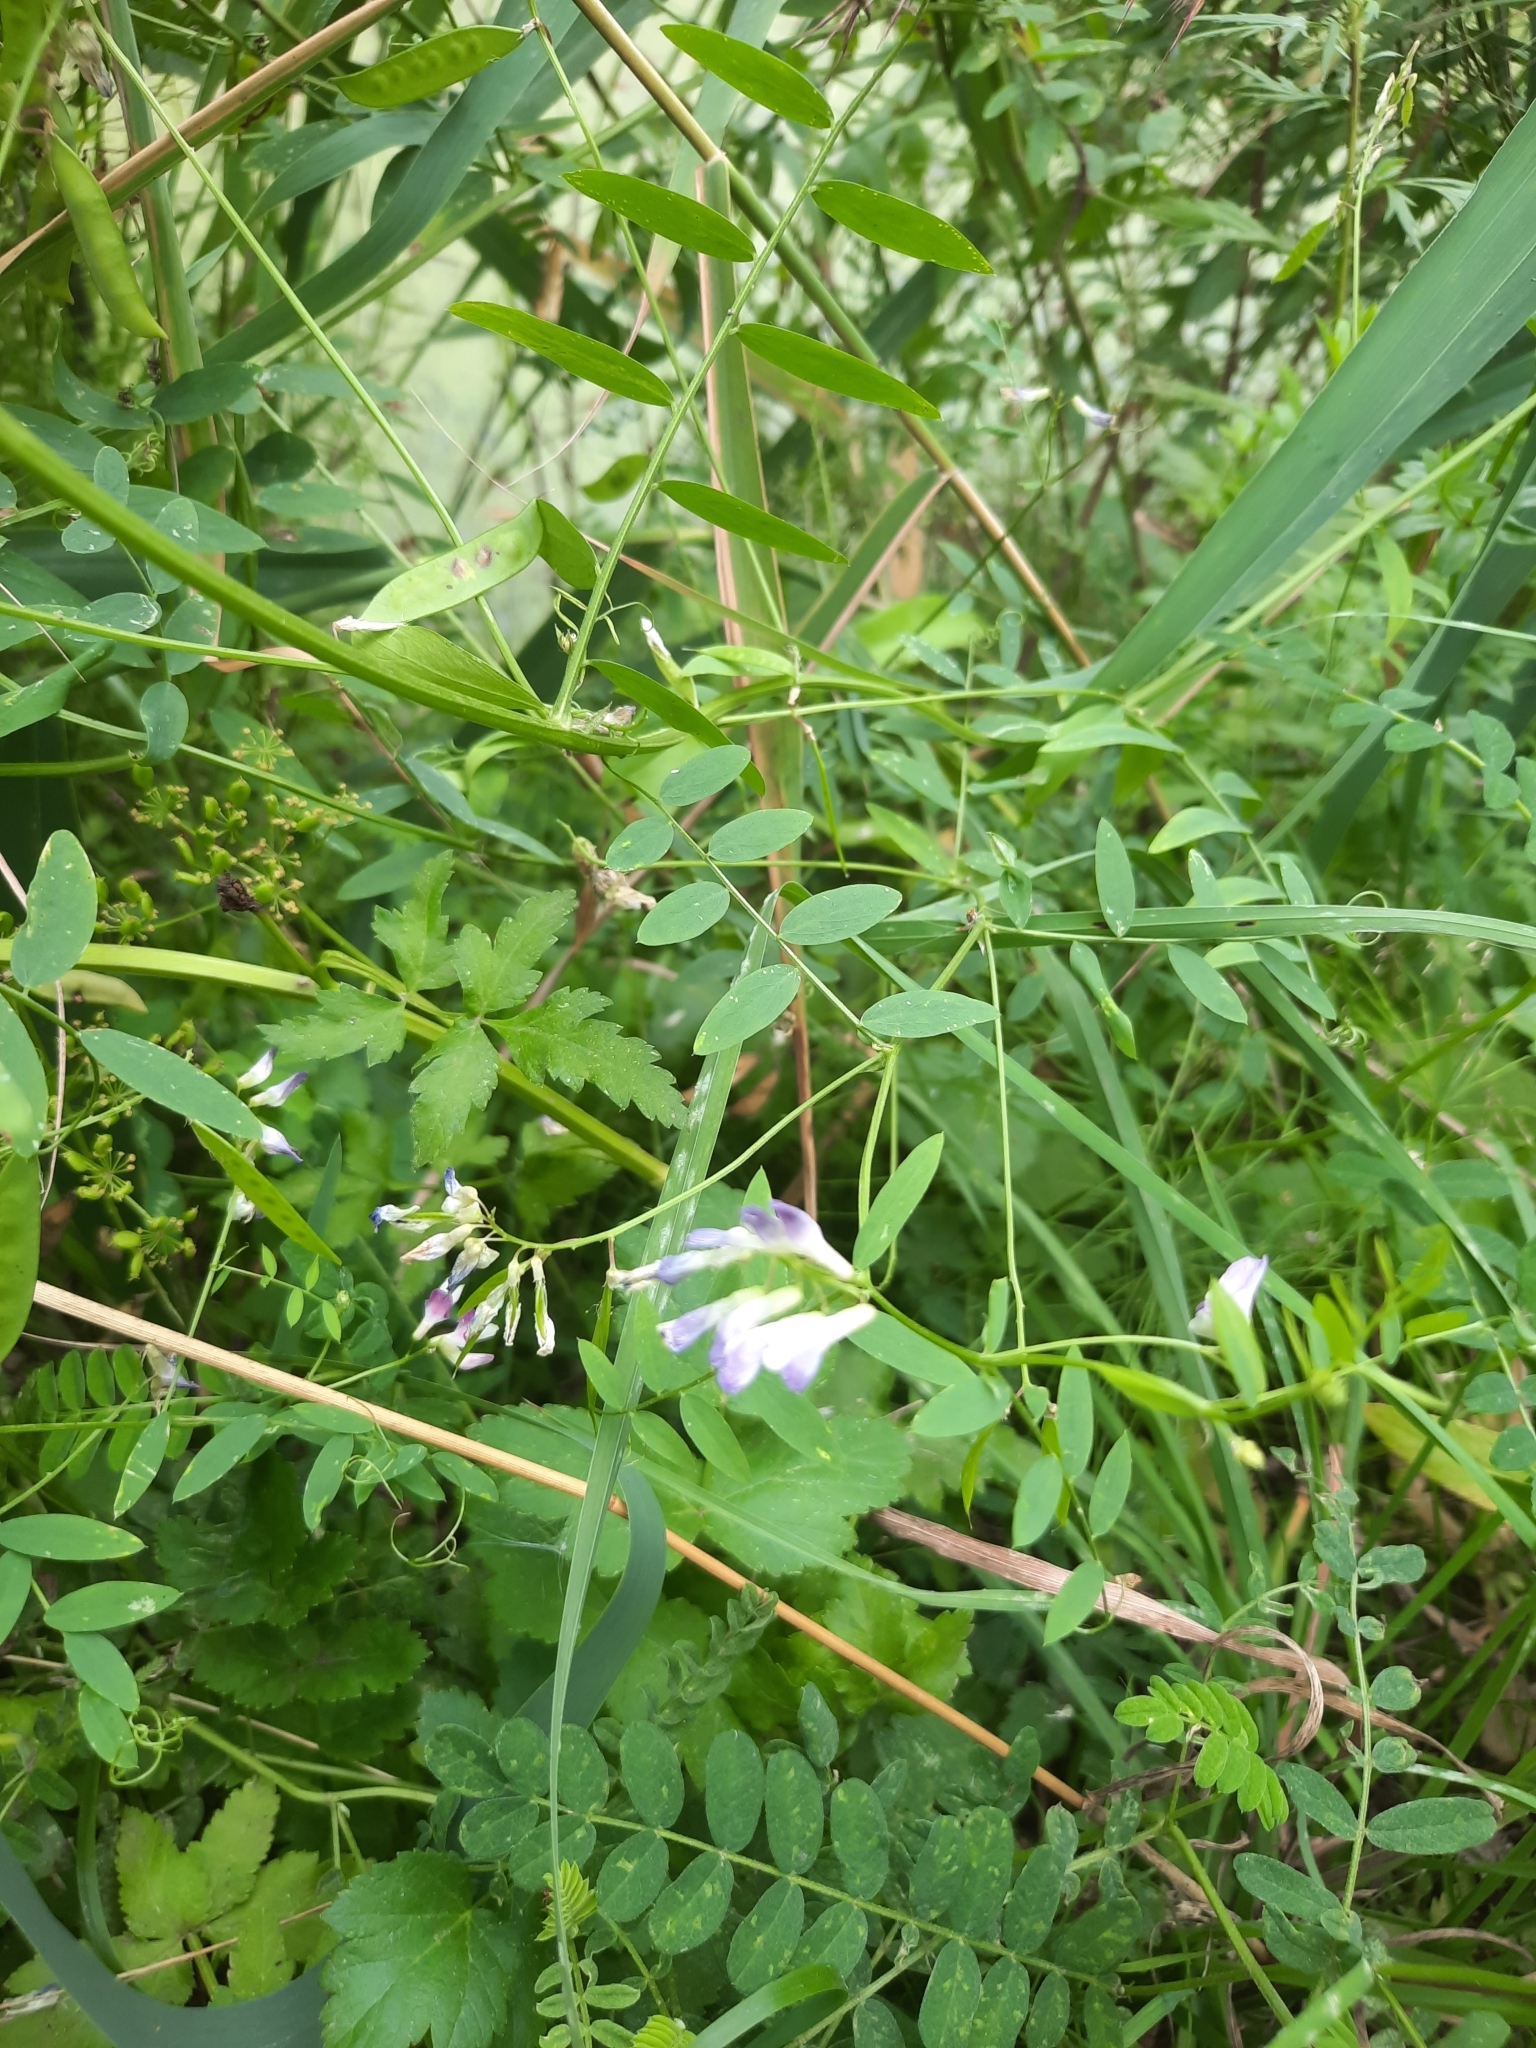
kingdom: Plantae
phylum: Tracheophyta
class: Magnoliopsida
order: Fabales
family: Fabaceae
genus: Vicia
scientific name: Vicia biennis
